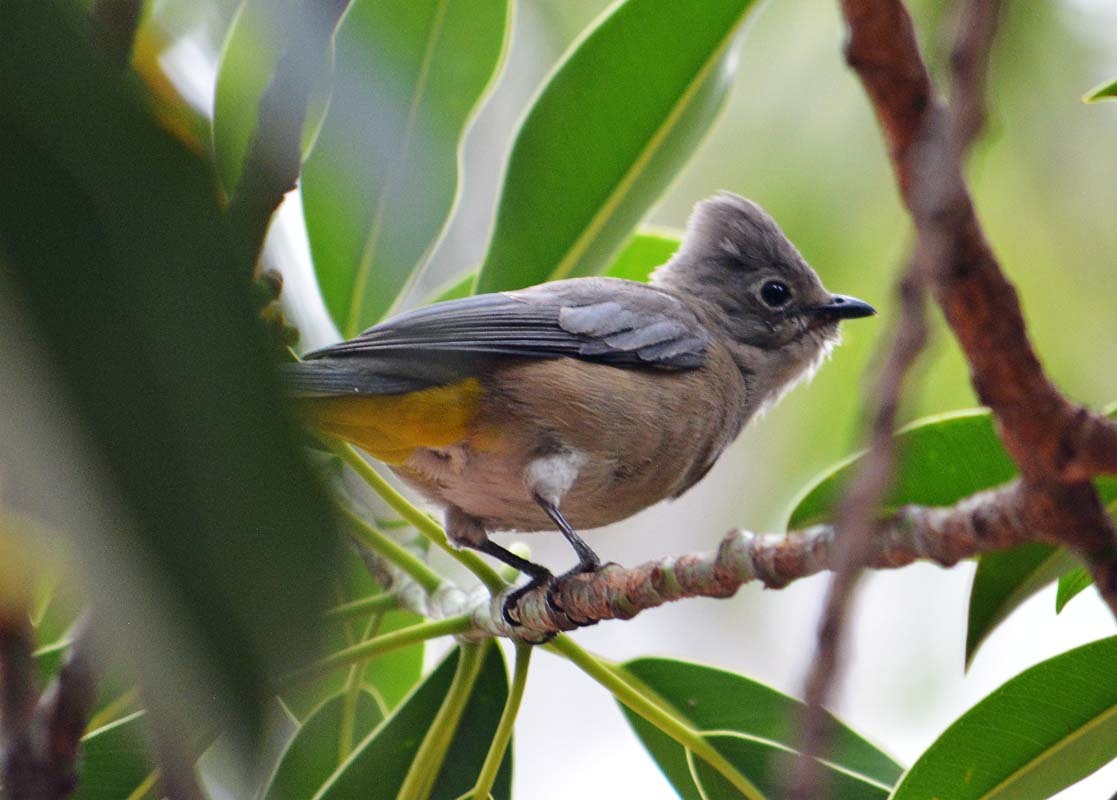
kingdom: Animalia
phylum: Chordata
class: Aves
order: Passeriformes
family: Ptilogonatidae
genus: Ptilogonys
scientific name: Ptilogonys cinereus
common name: Gray silky-flycatcher
